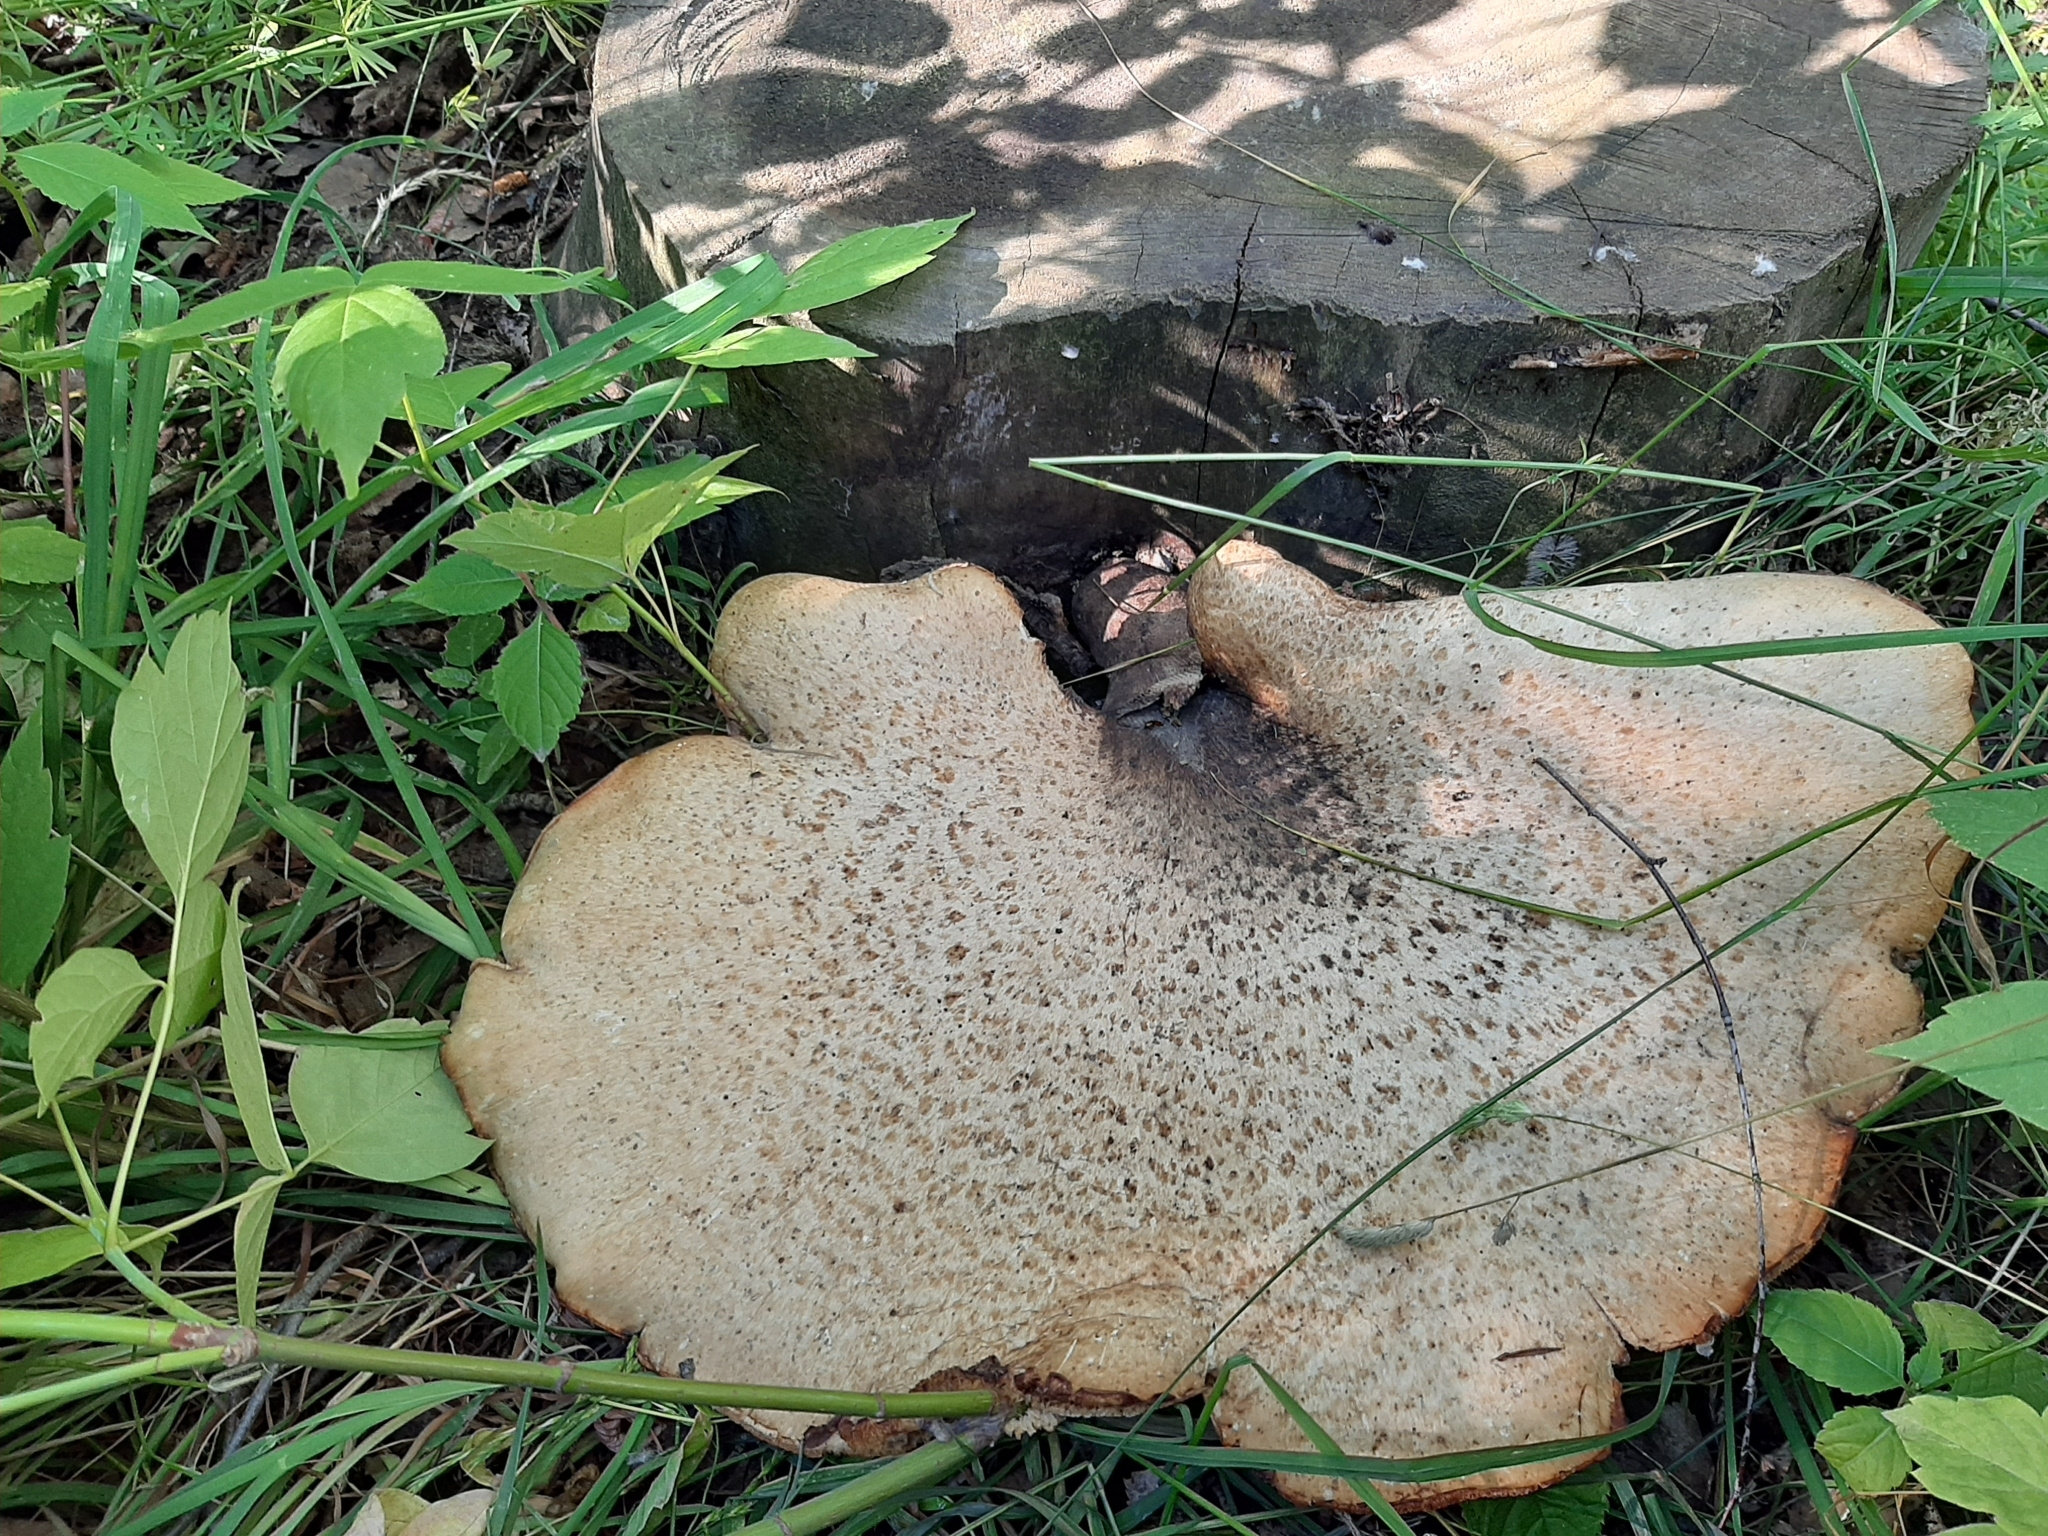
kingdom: Fungi
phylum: Basidiomycota
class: Agaricomycetes
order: Polyporales
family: Polyporaceae
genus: Cerioporus
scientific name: Cerioporus squamosus
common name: Dryad's saddle
